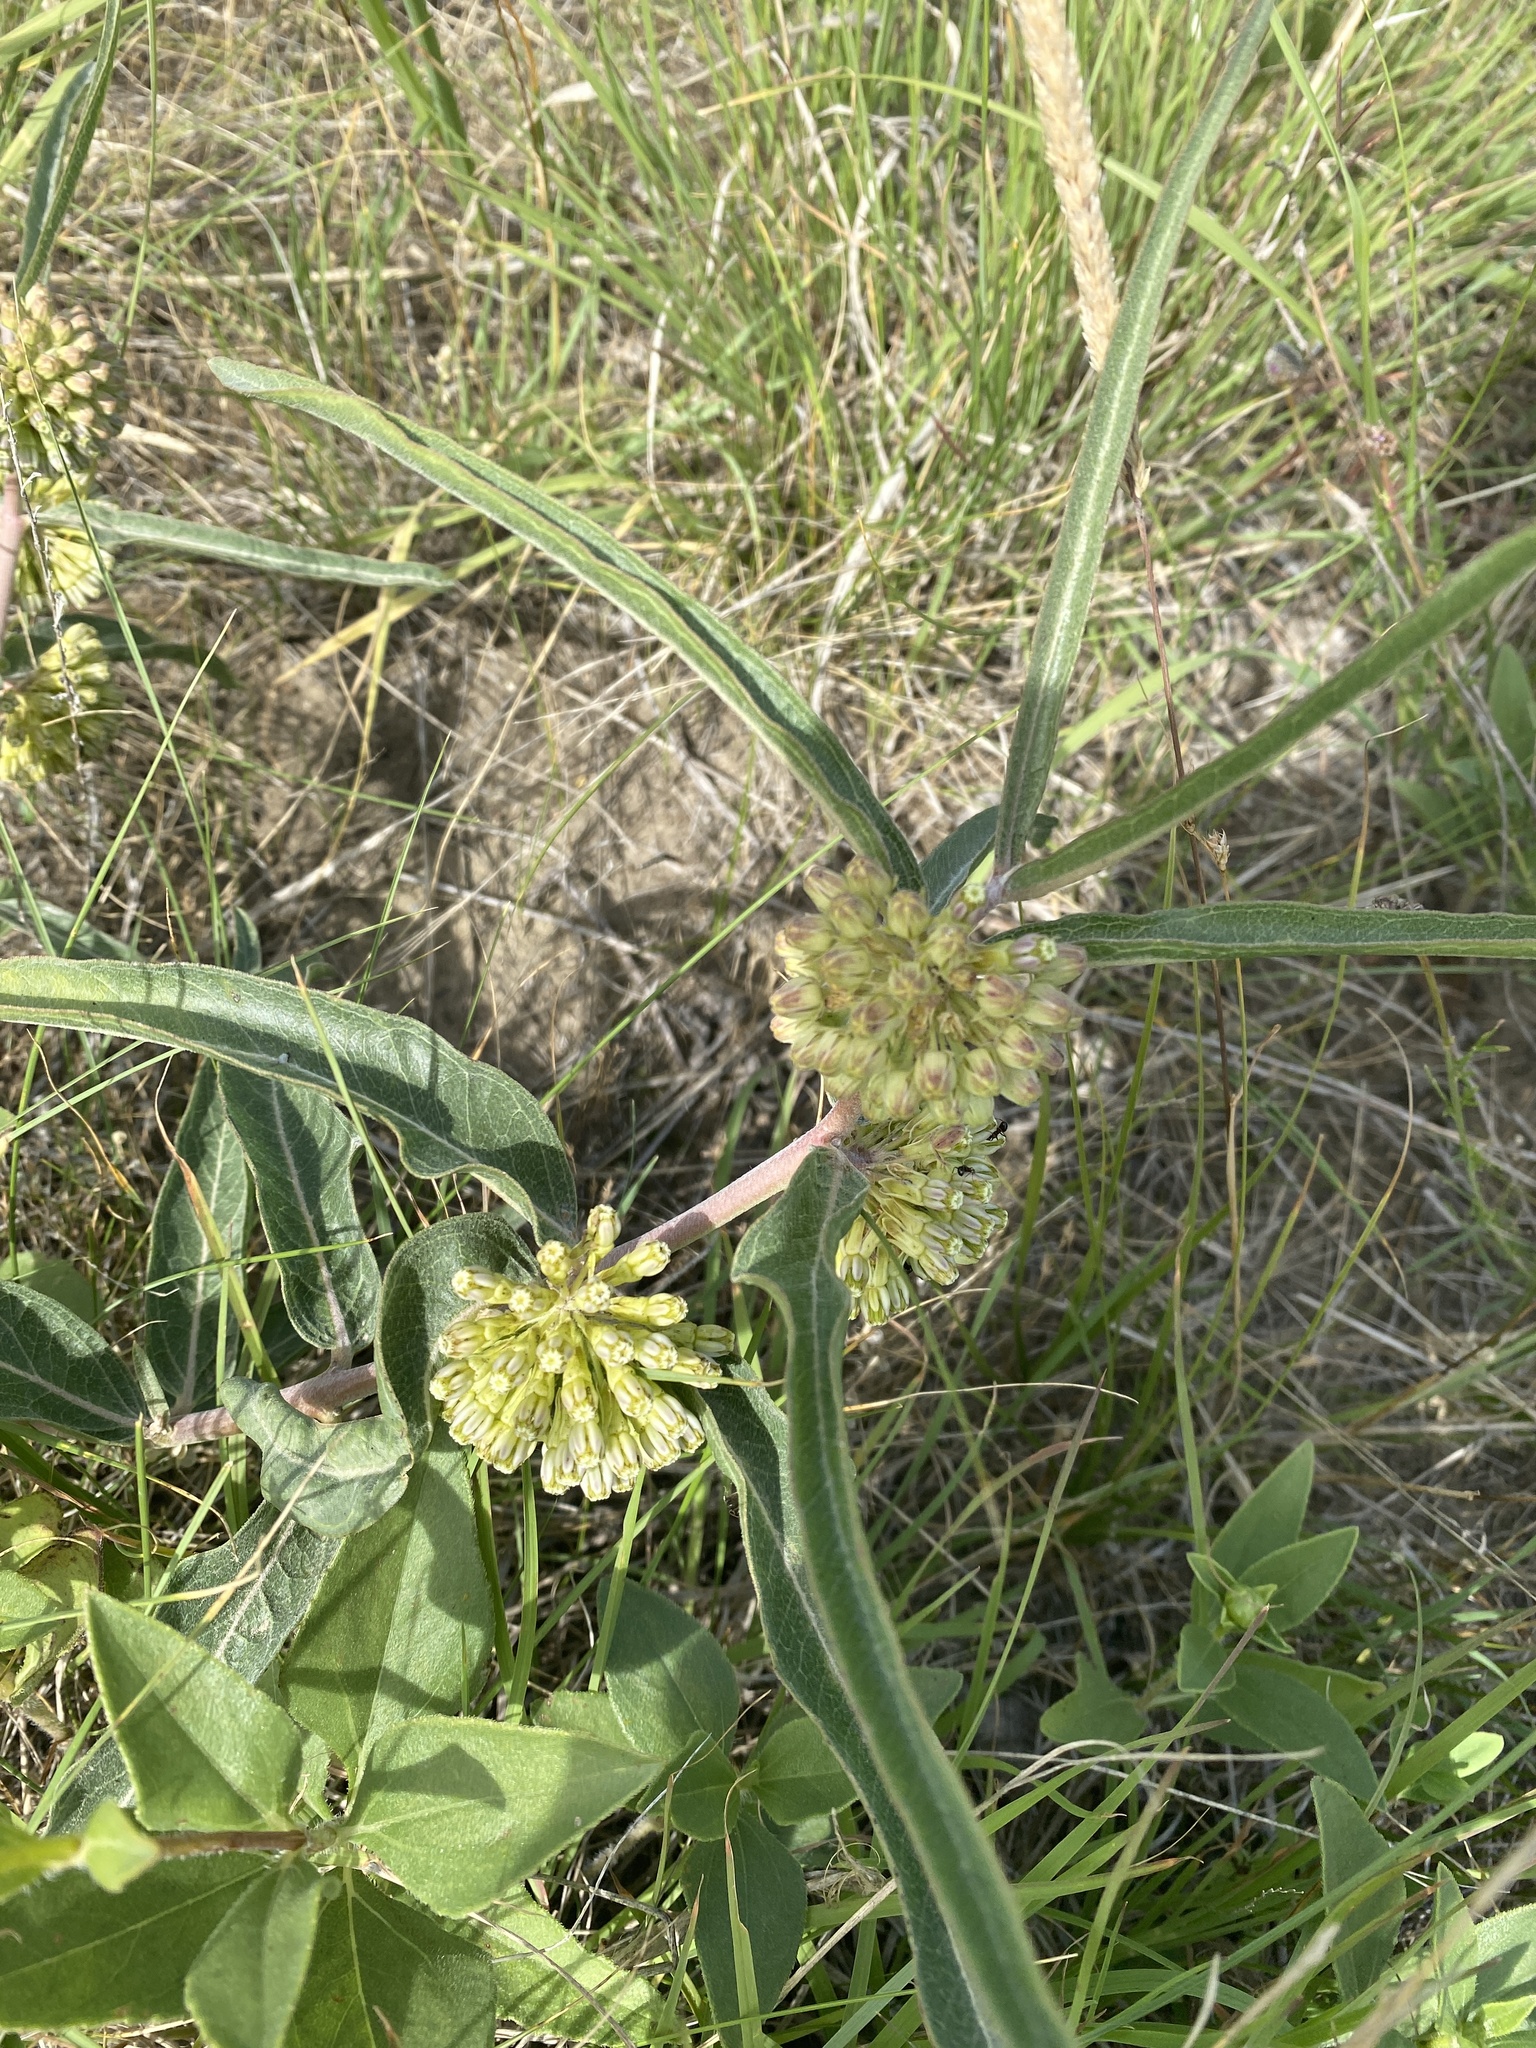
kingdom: Plantae
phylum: Tracheophyta
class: Magnoliopsida
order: Gentianales
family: Apocynaceae
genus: Asclepias
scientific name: Asclepias viridiflora
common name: Green comet milkweed
